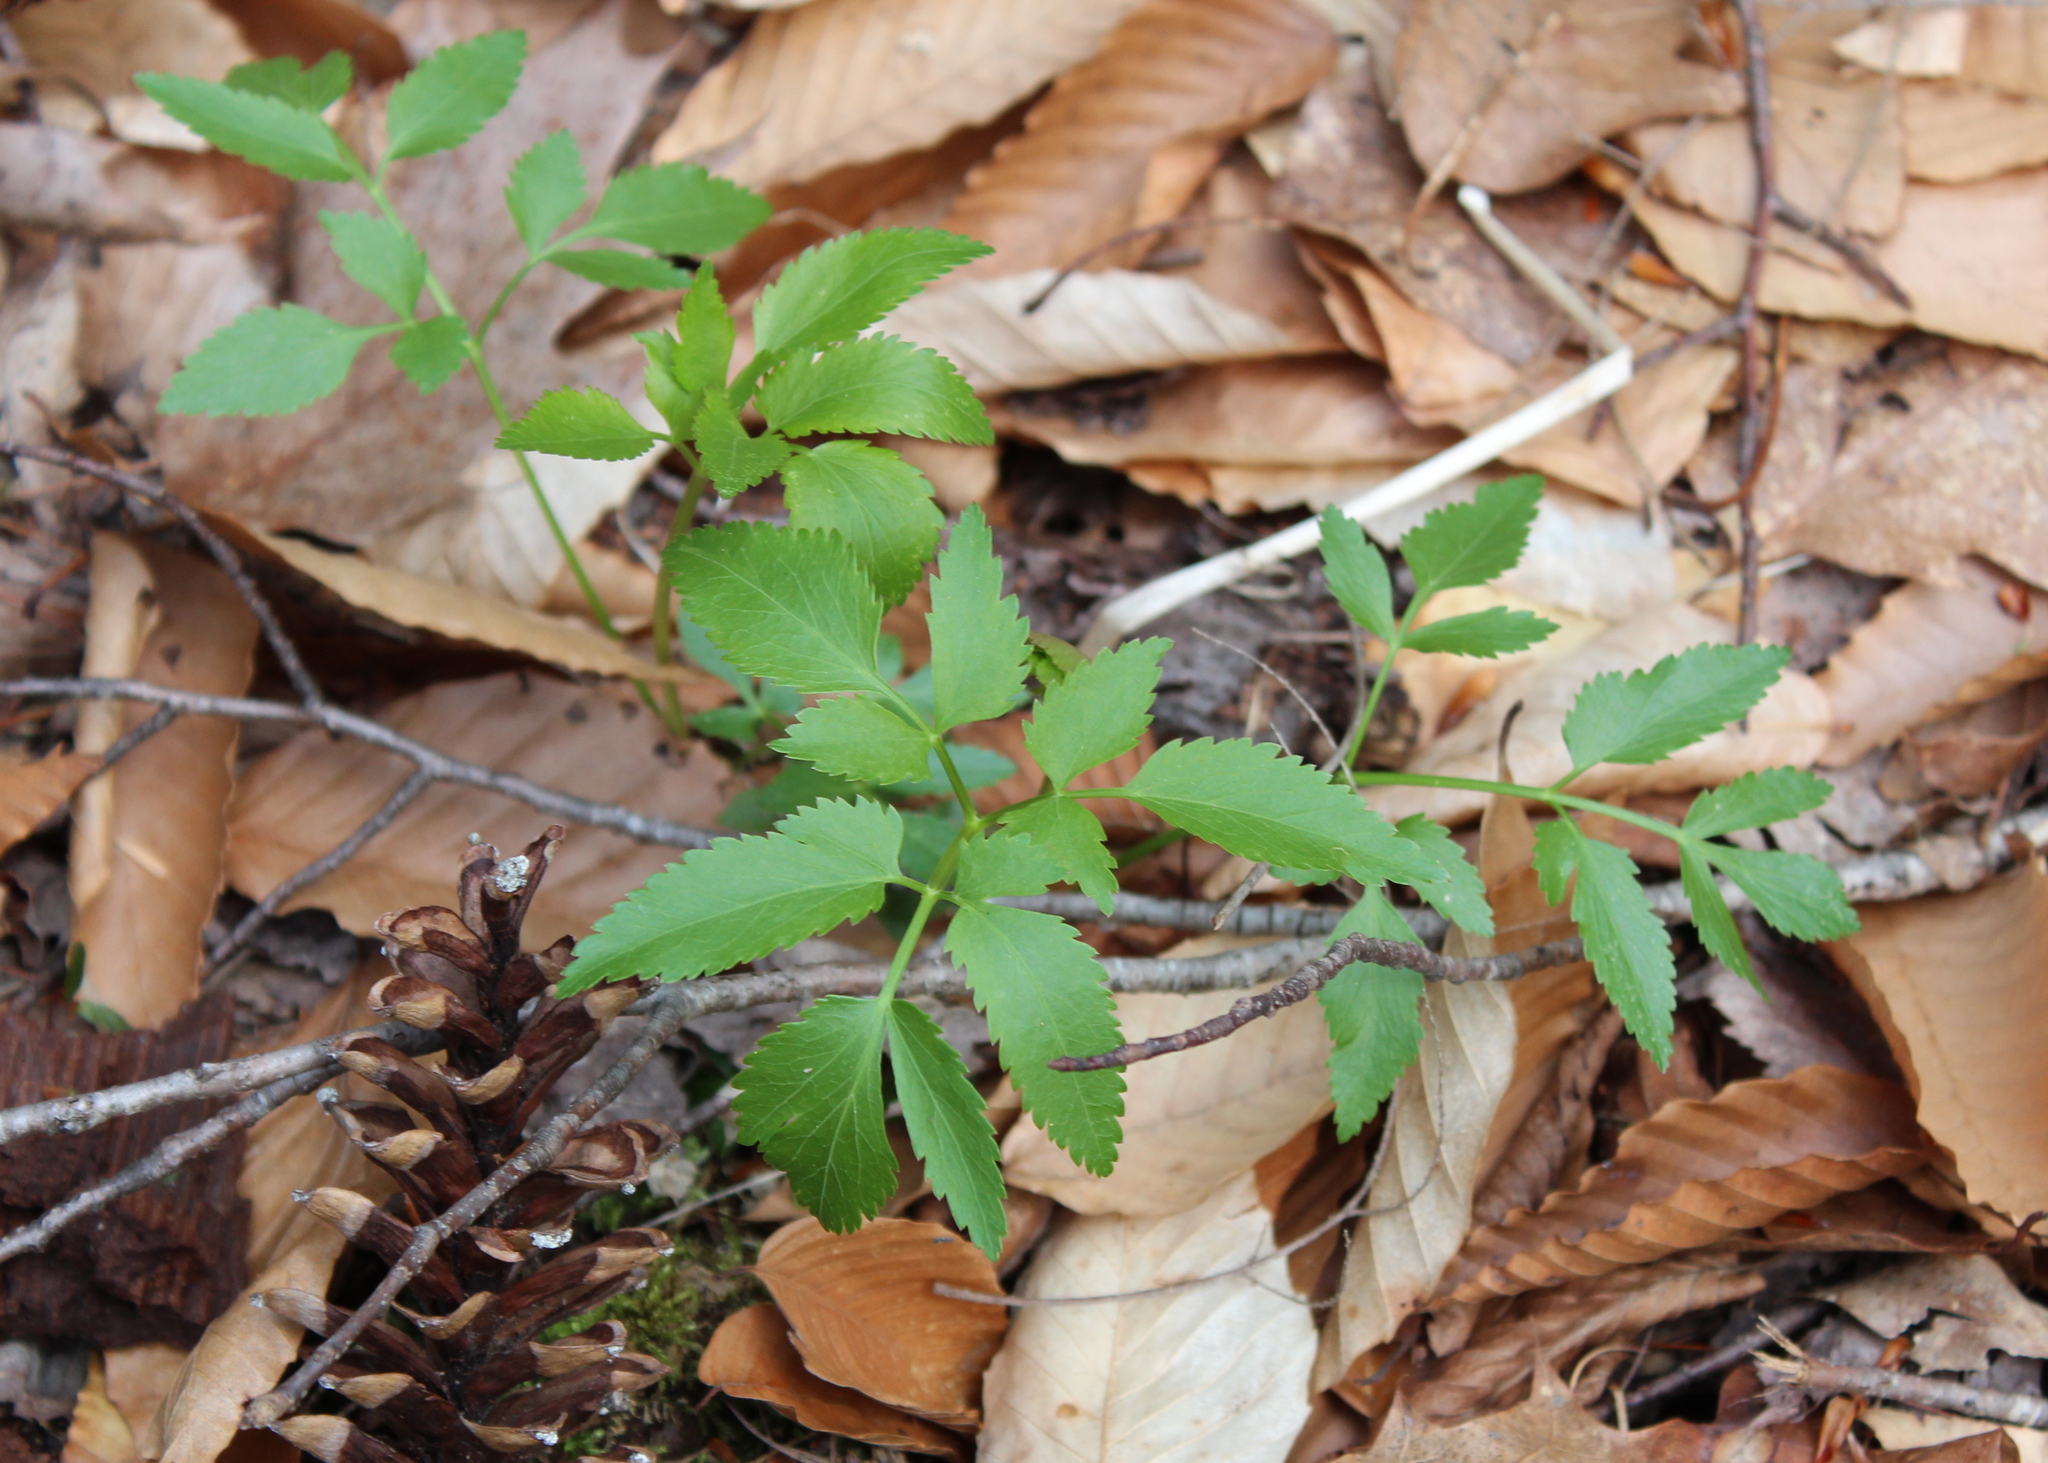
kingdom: Plantae
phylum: Tracheophyta
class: Magnoliopsida
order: Apiales
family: Apiaceae
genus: Zizia
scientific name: Zizia aurea
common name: Golden alexanders
